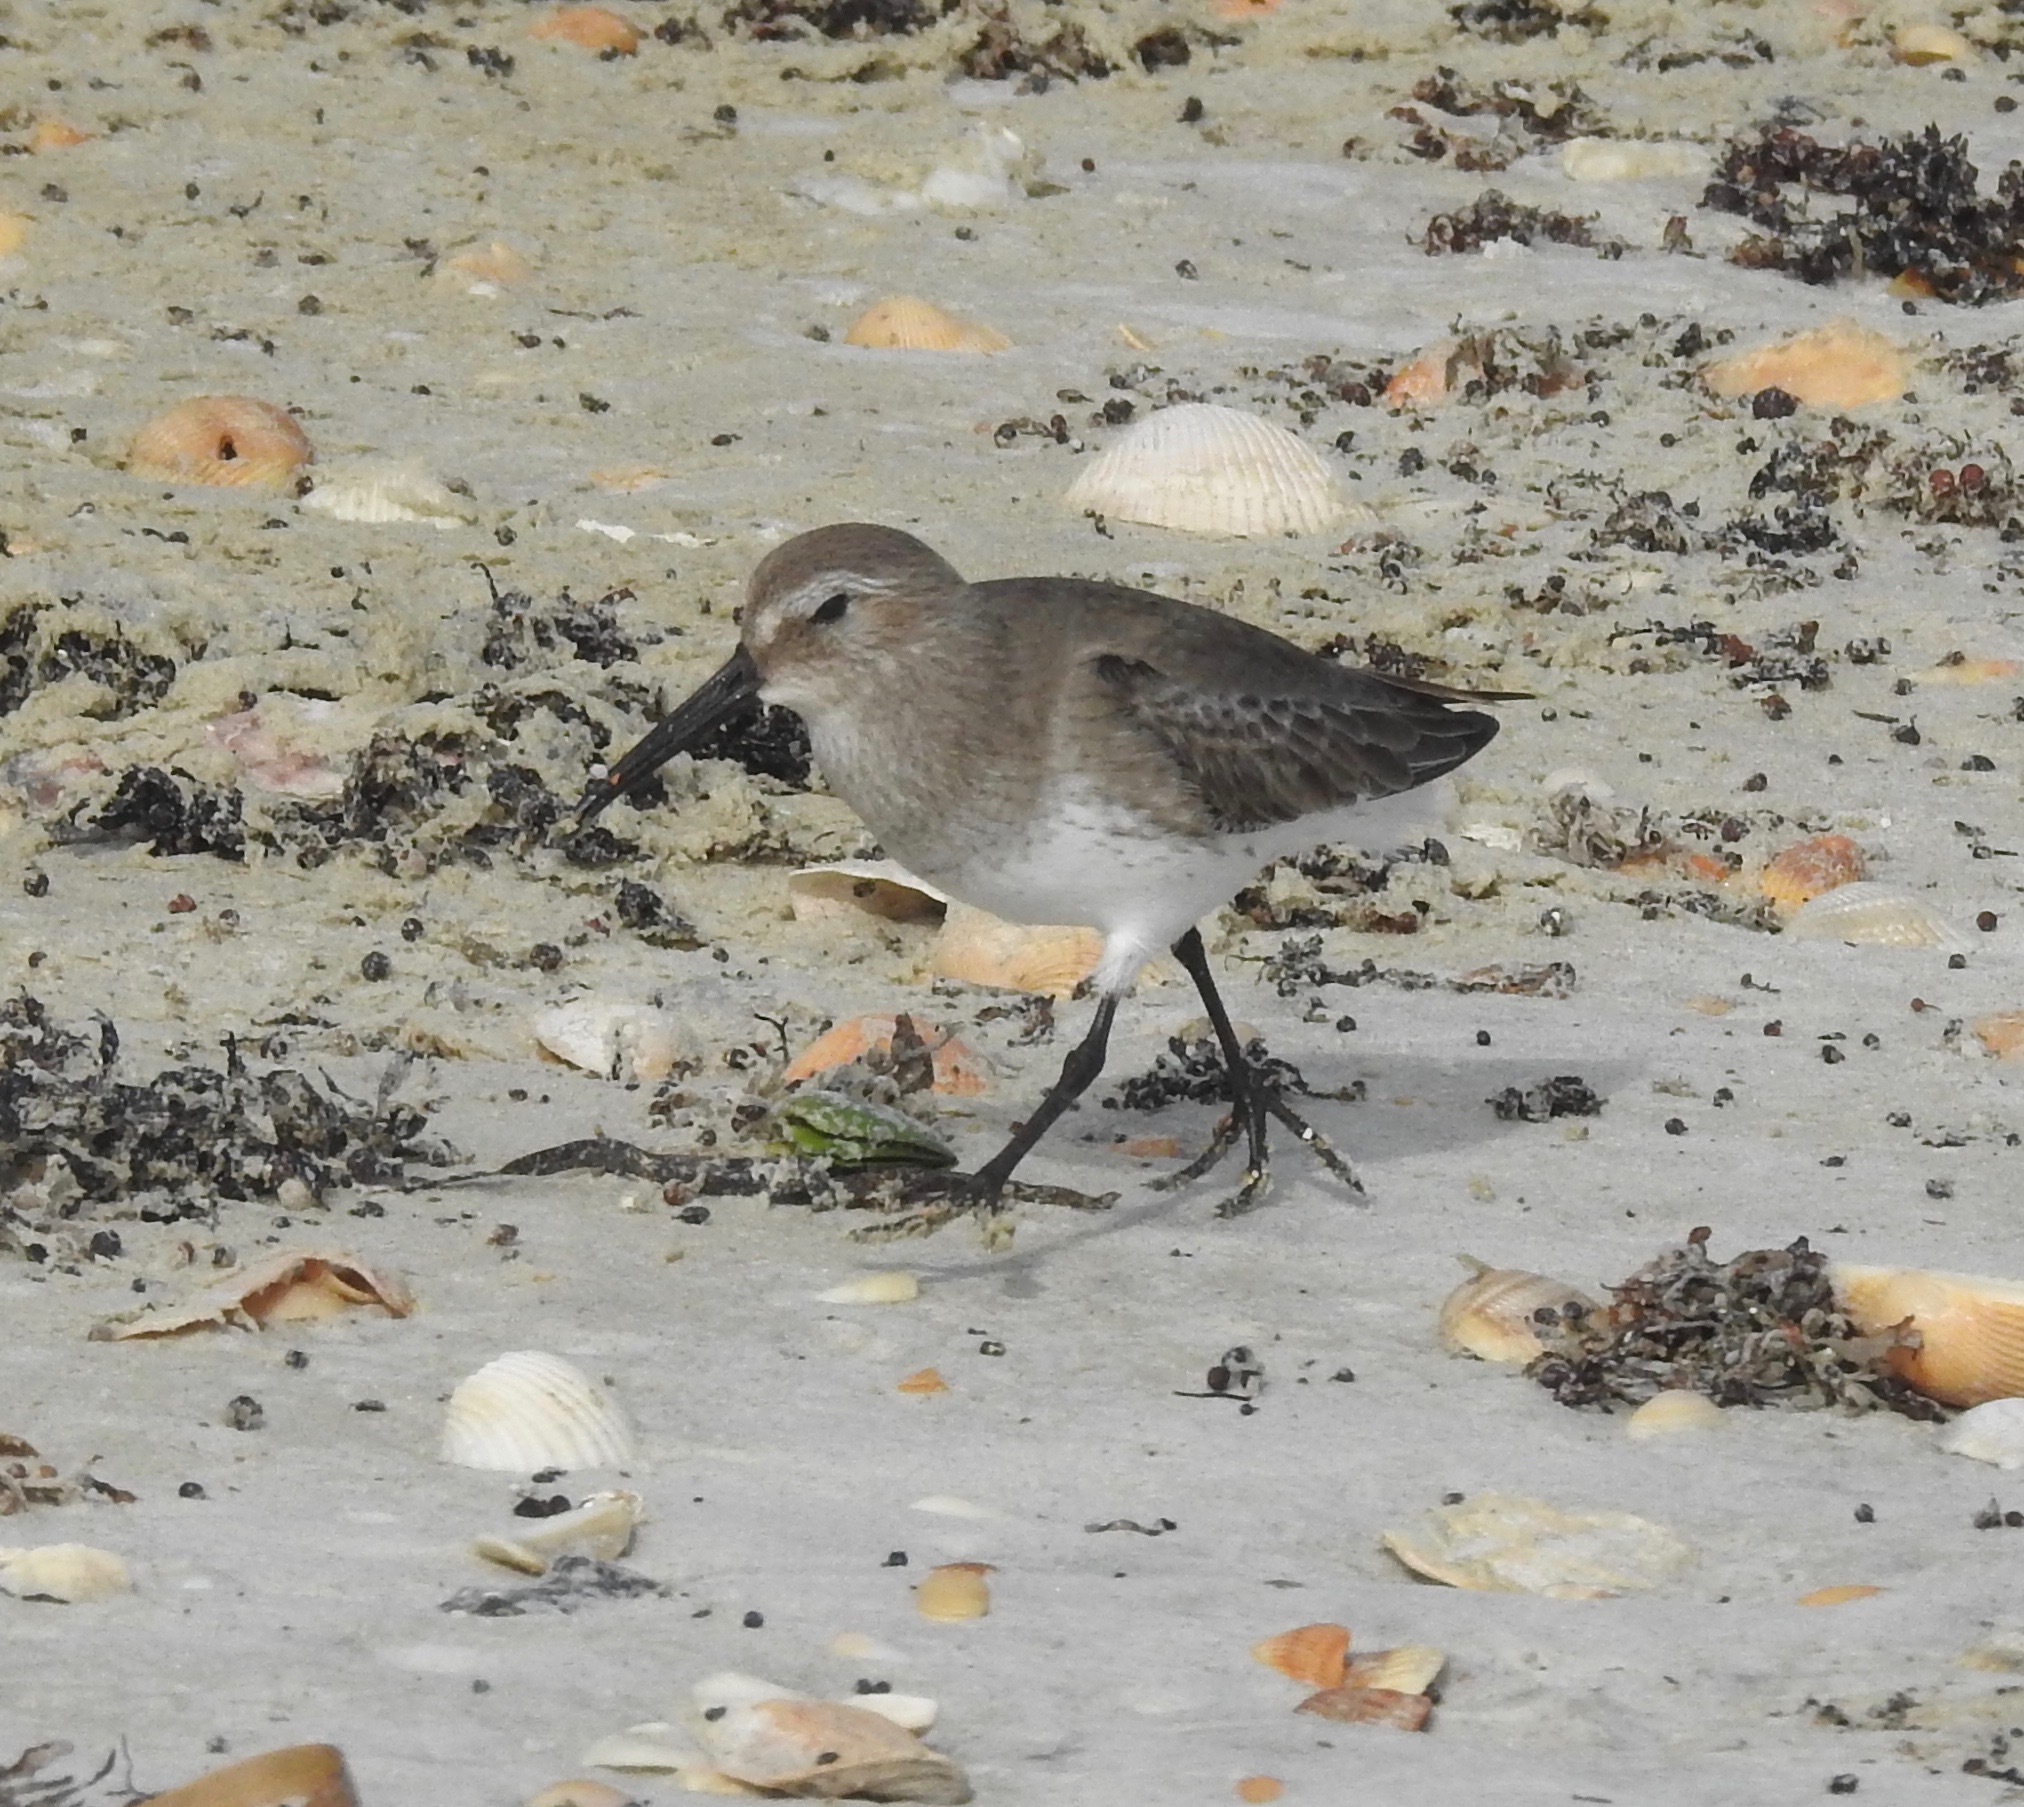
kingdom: Animalia
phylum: Chordata
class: Aves
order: Charadriiformes
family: Scolopacidae
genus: Calidris
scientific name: Calidris alpina
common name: Dunlin
